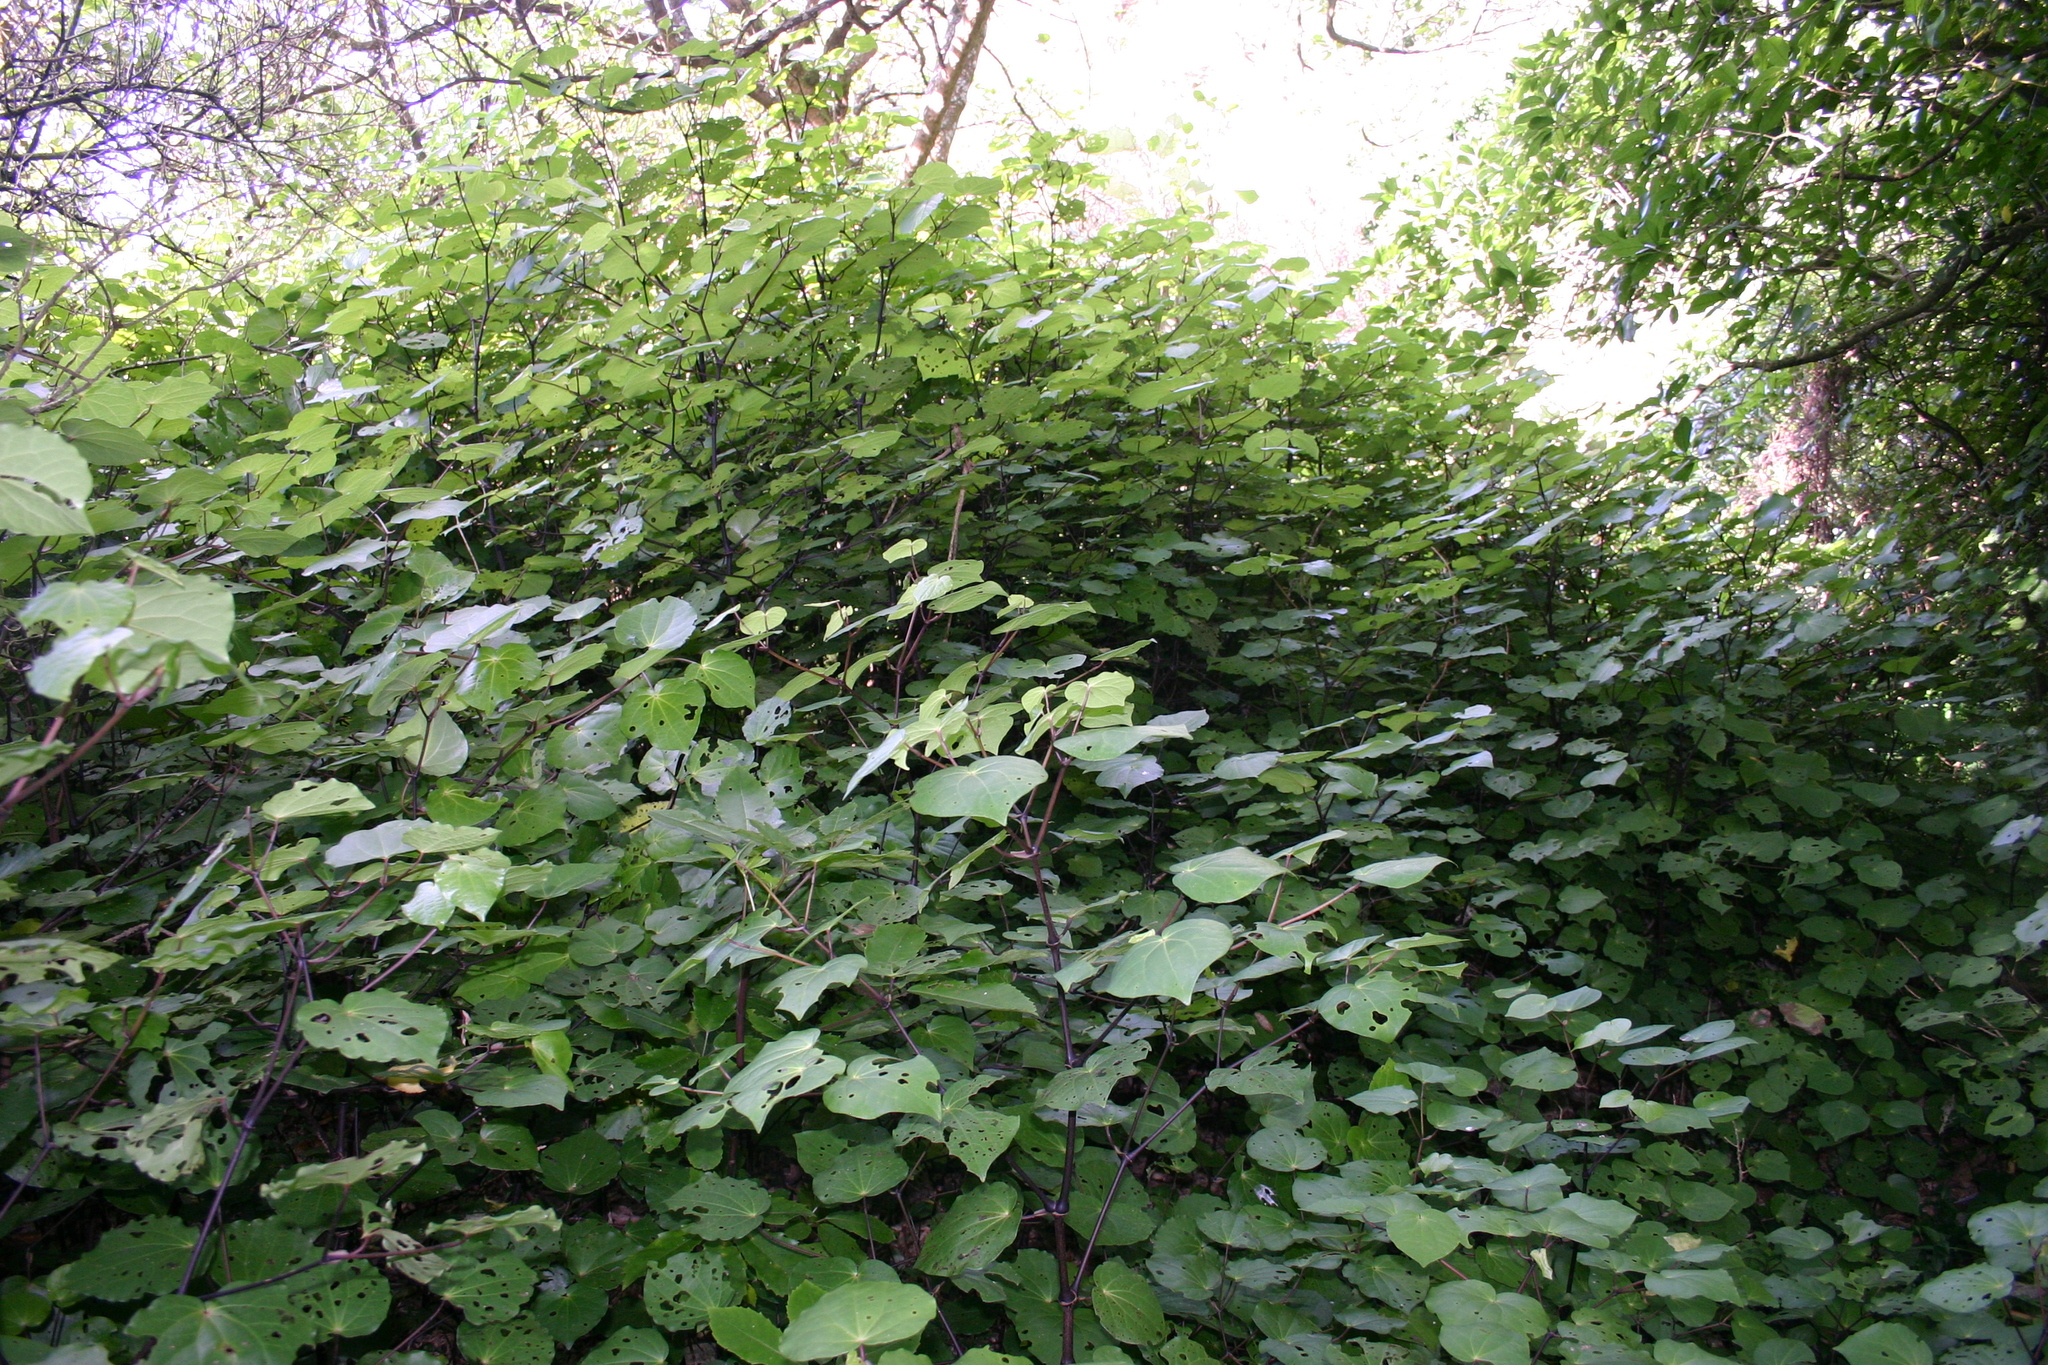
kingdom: Plantae
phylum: Tracheophyta
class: Magnoliopsida
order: Piperales
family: Piperaceae
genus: Macropiper
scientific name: Macropiper excelsum
